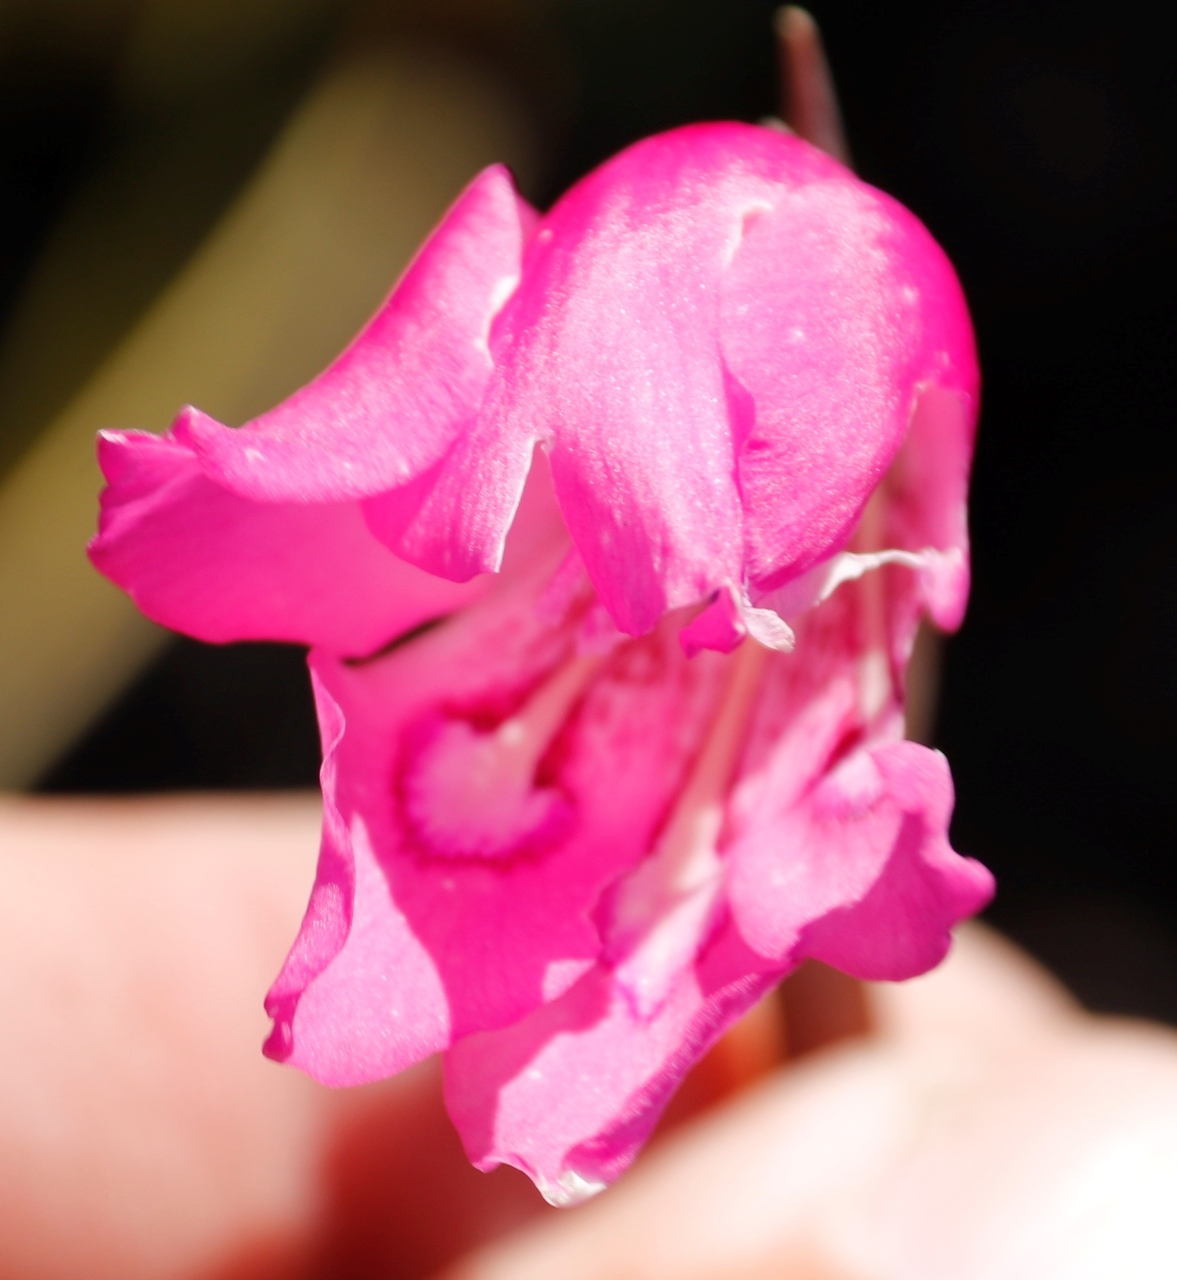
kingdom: Plantae
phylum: Tracheophyta
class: Liliopsida
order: Asparagales
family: Iridaceae
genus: Gladiolus
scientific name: Gladiolus ornatus
